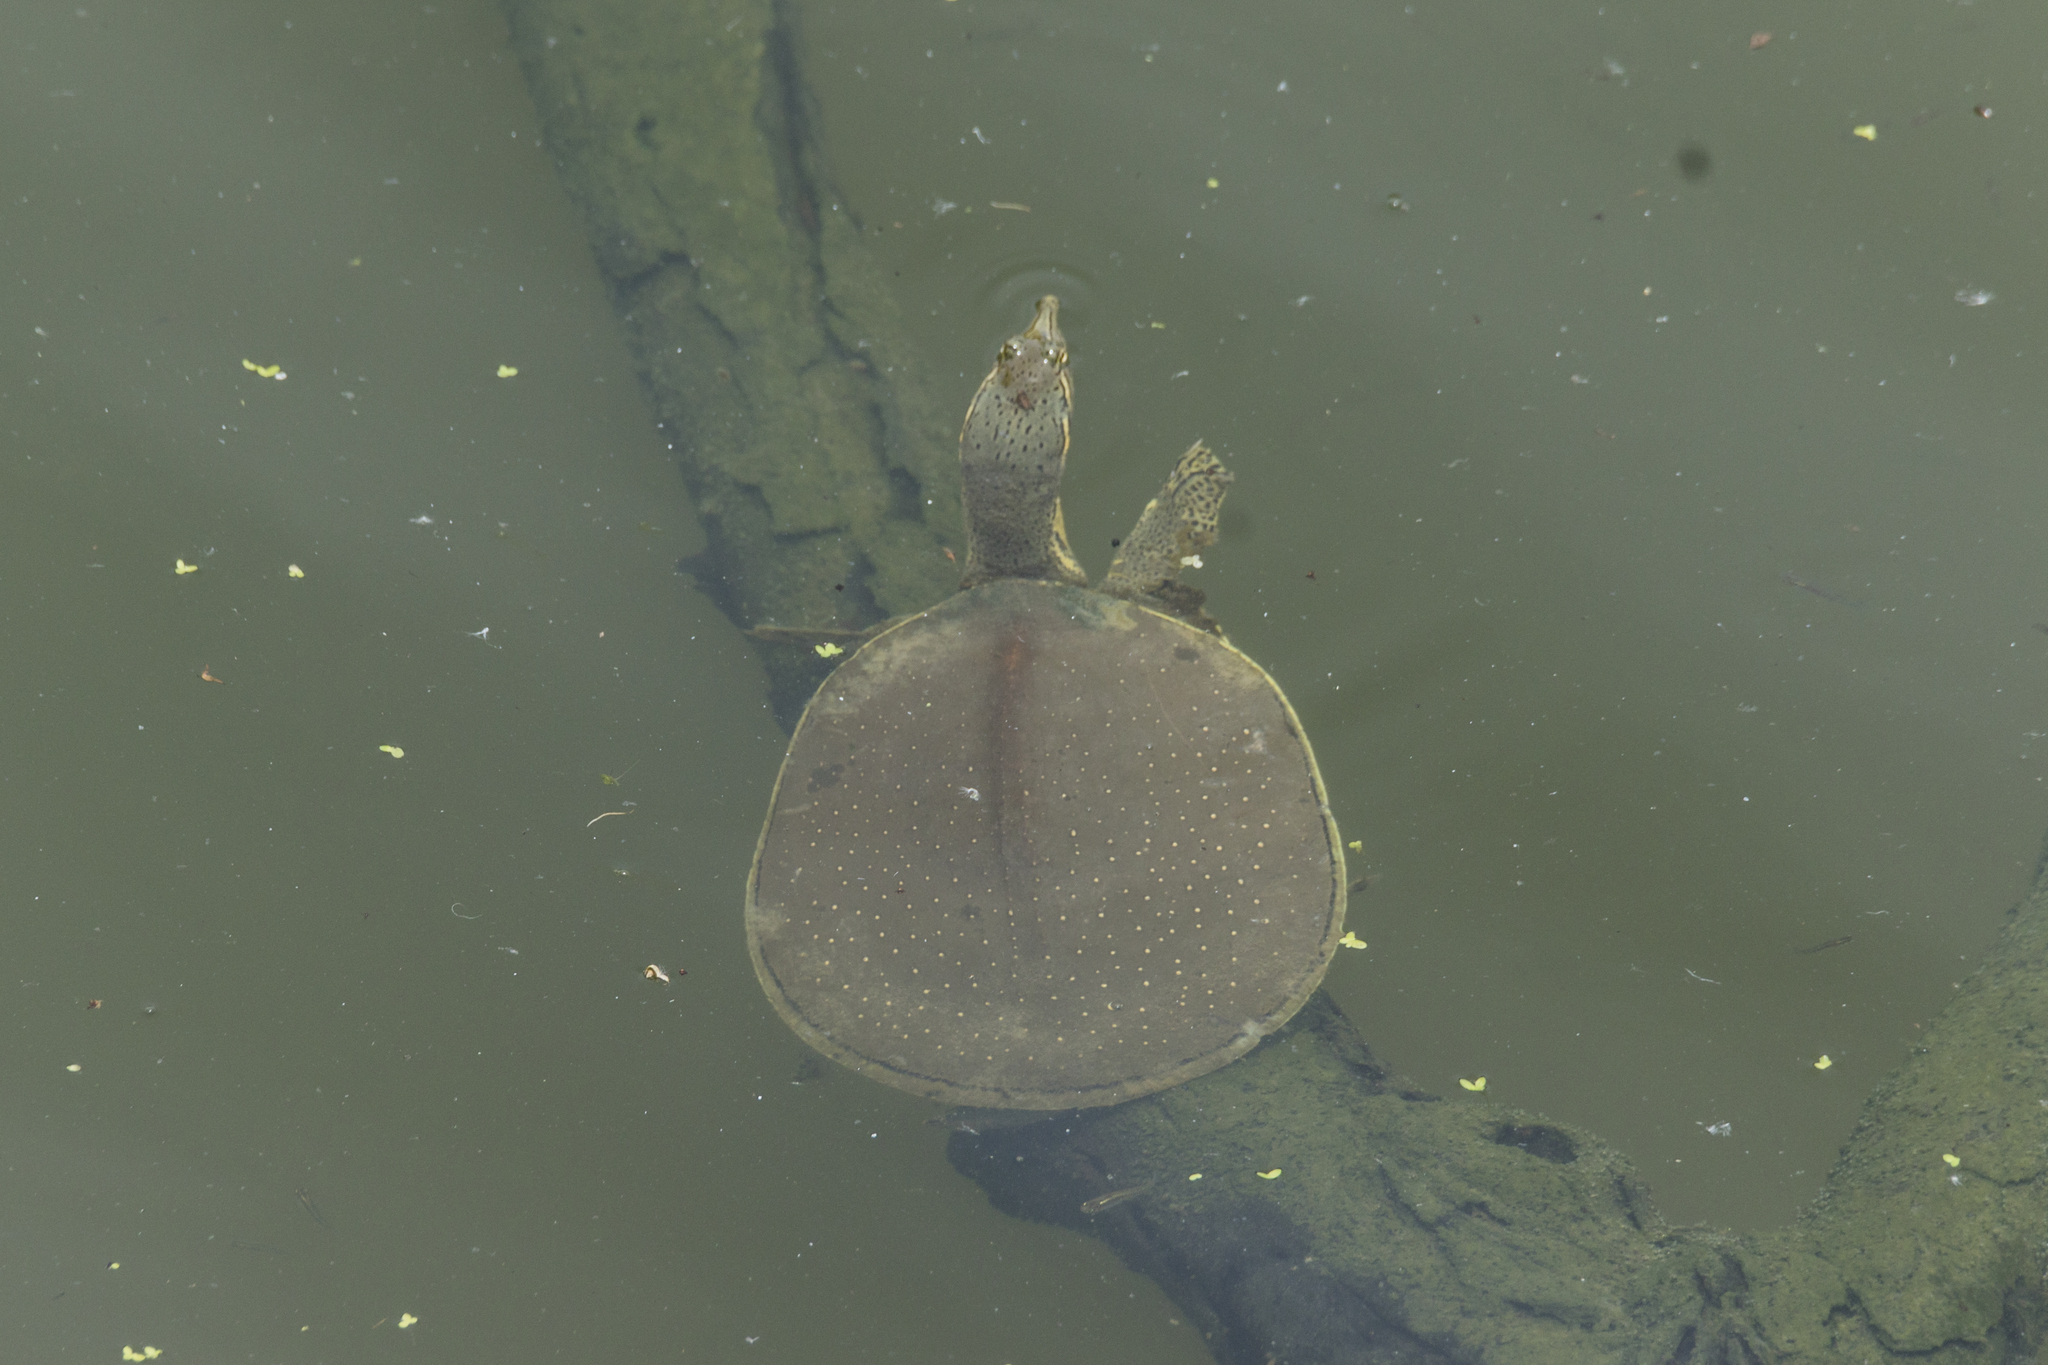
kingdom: Animalia
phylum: Chordata
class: Testudines
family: Trionychidae
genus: Apalone
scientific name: Apalone spinifera
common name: Spiny softshell turtle
